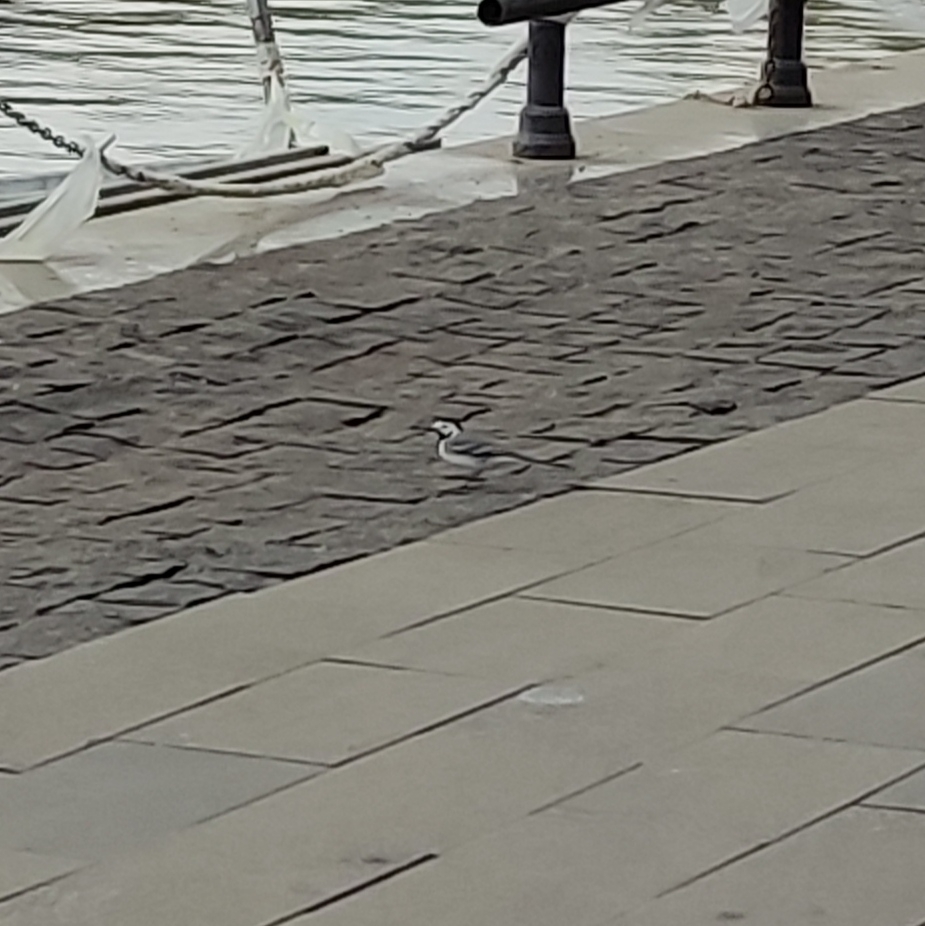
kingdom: Animalia
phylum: Chordata
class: Aves
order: Passeriformes
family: Motacillidae
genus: Motacilla
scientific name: Motacilla alba
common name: White wagtail
